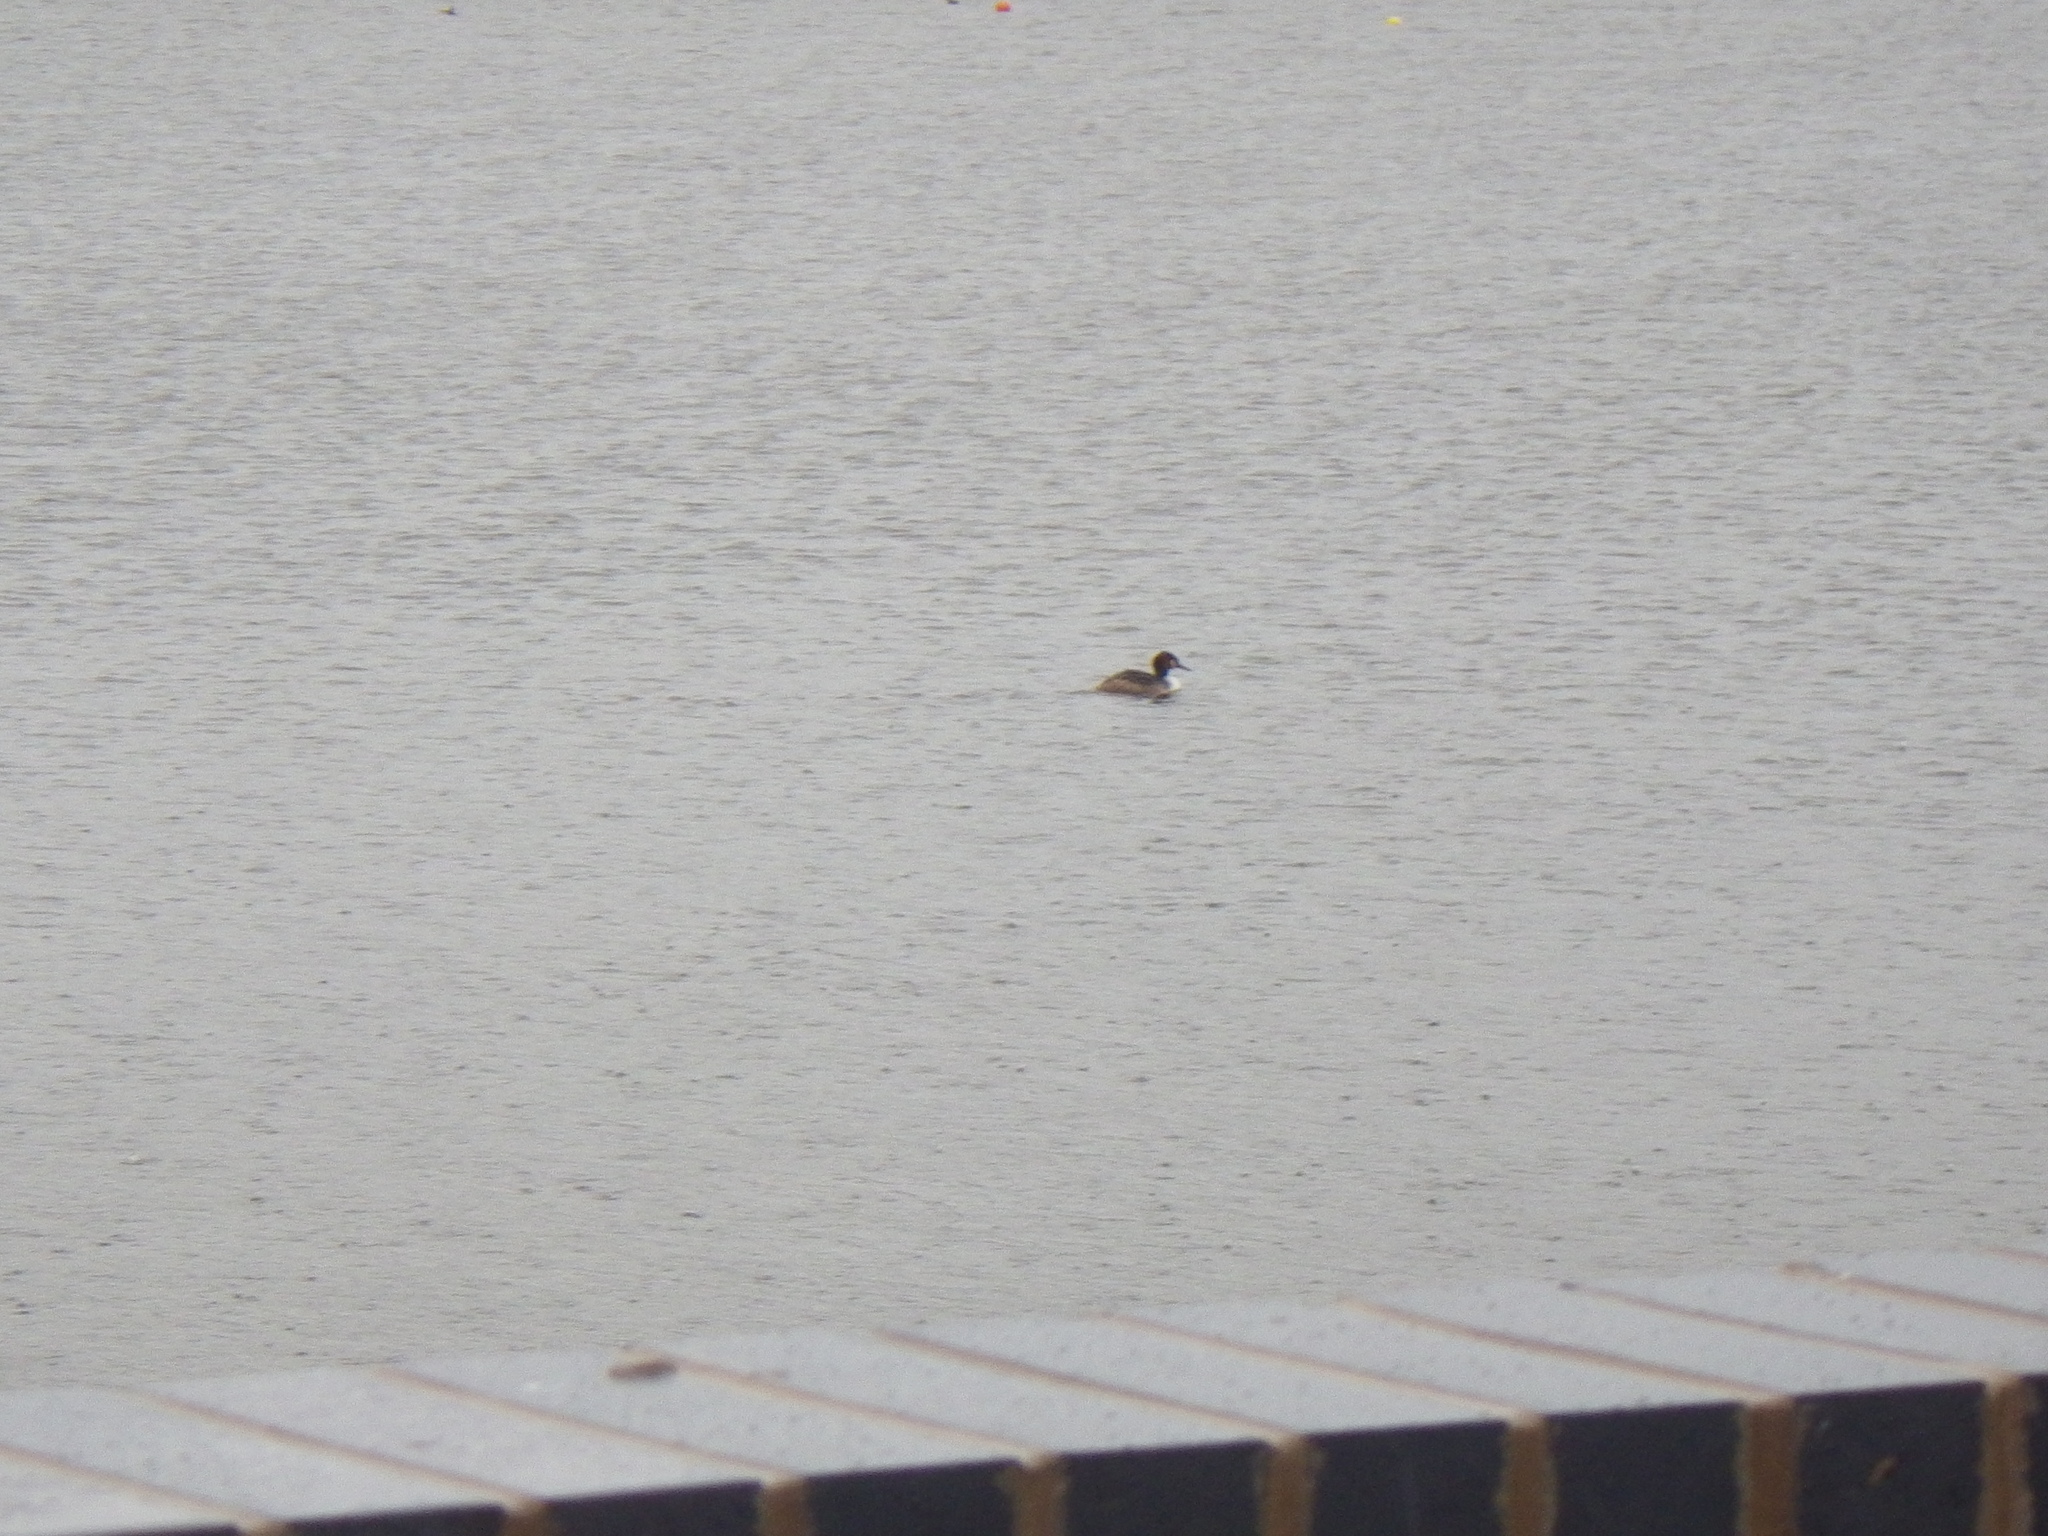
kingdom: Animalia
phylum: Chordata
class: Aves
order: Podicipediformes
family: Podicipedidae
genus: Podiceps
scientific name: Podiceps cristatus
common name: Great crested grebe
